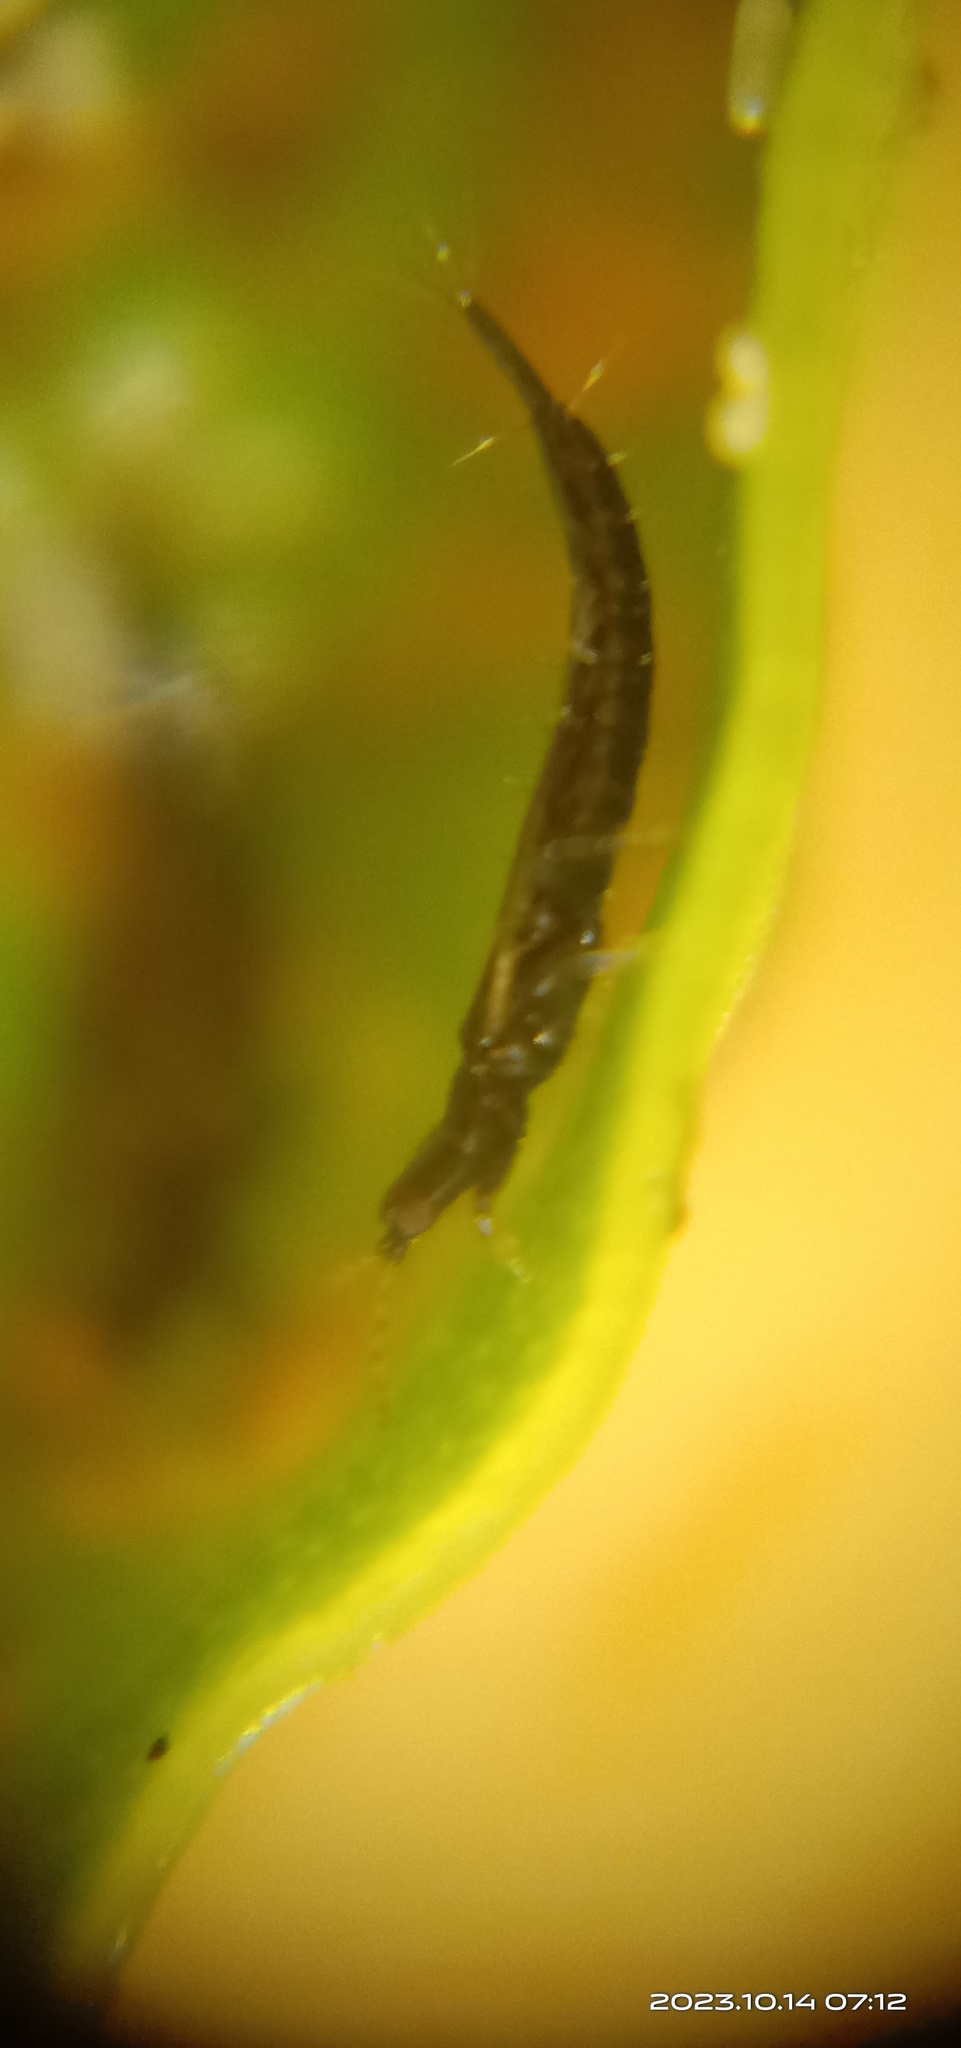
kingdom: Animalia
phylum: Arthropoda
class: Insecta
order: Thysanoptera
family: Phlaeothripidae
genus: Gynaikothrips
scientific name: Gynaikothrips ficorum
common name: Cuban laurel thrips
